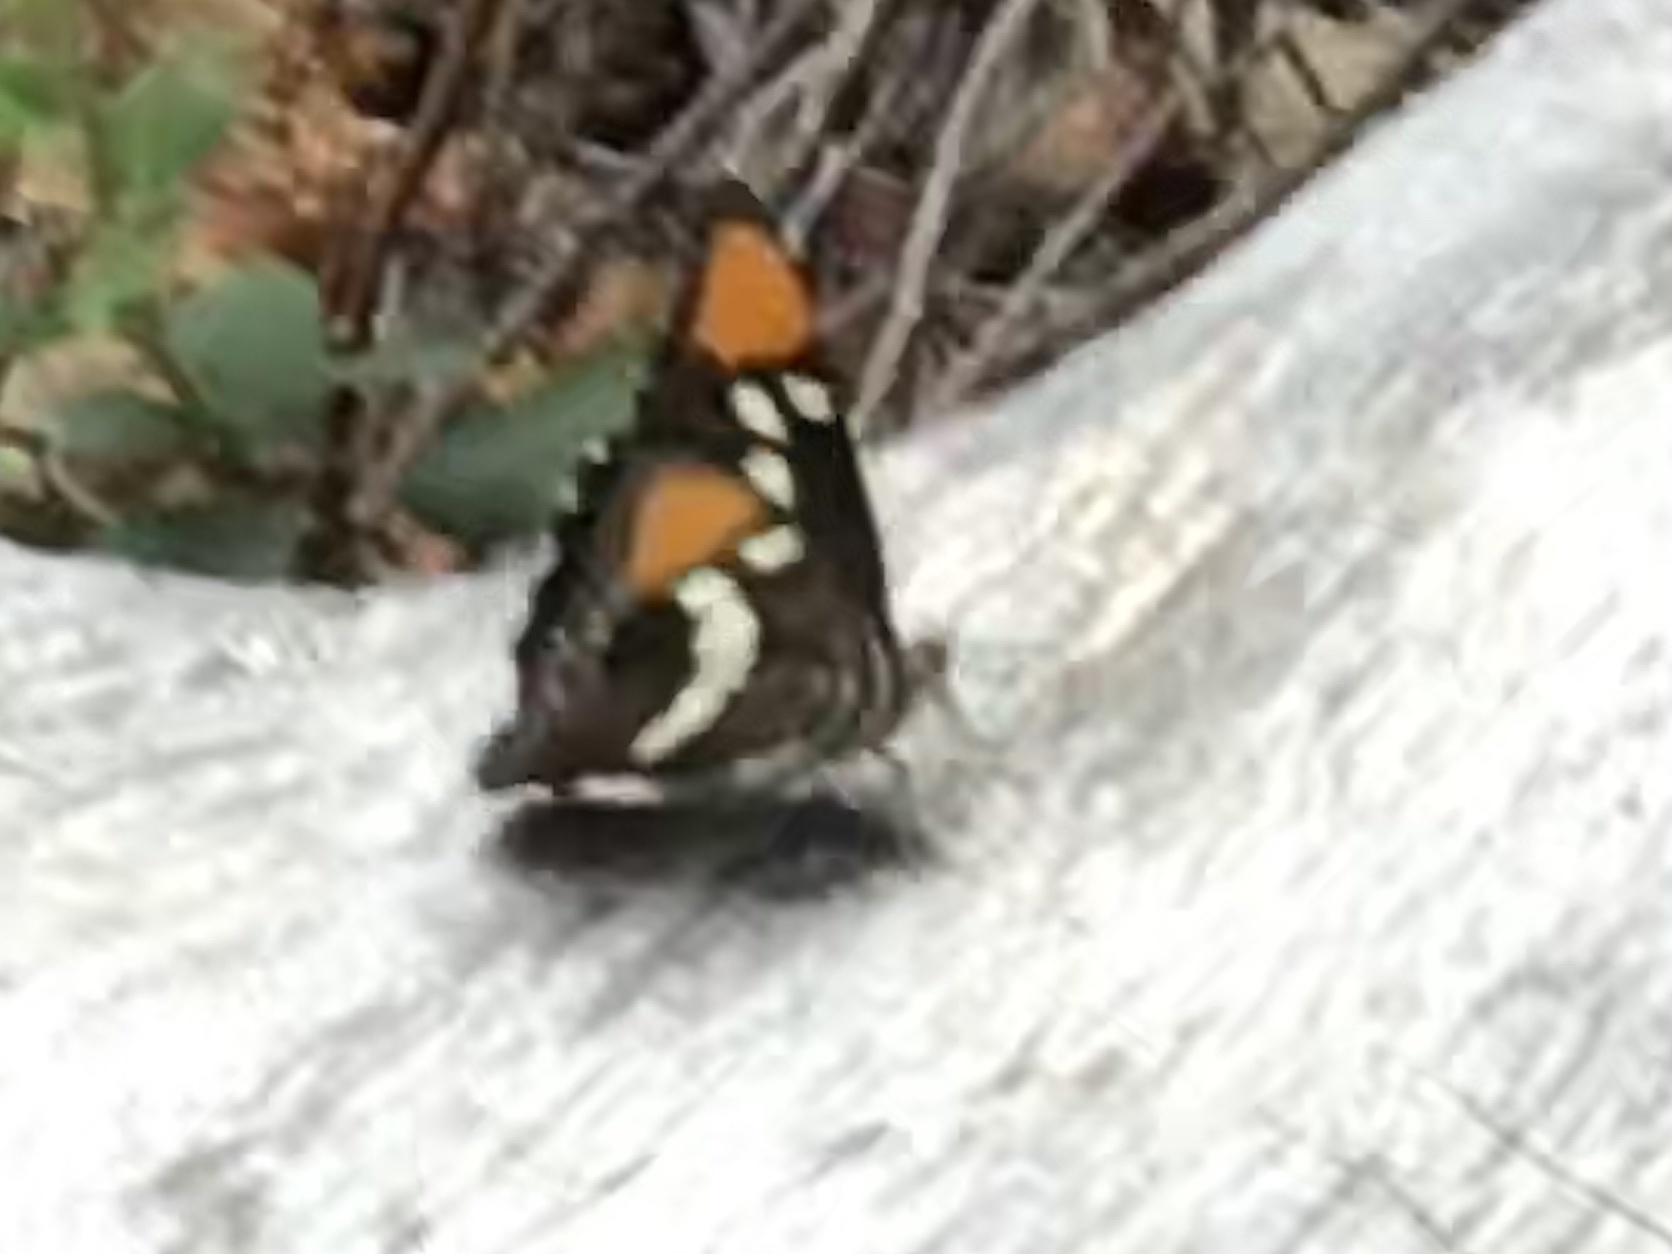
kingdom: Animalia
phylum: Arthropoda
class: Insecta
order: Lepidoptera
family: Nymphalidae
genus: Limenitis
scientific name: Limenitis bredowii
